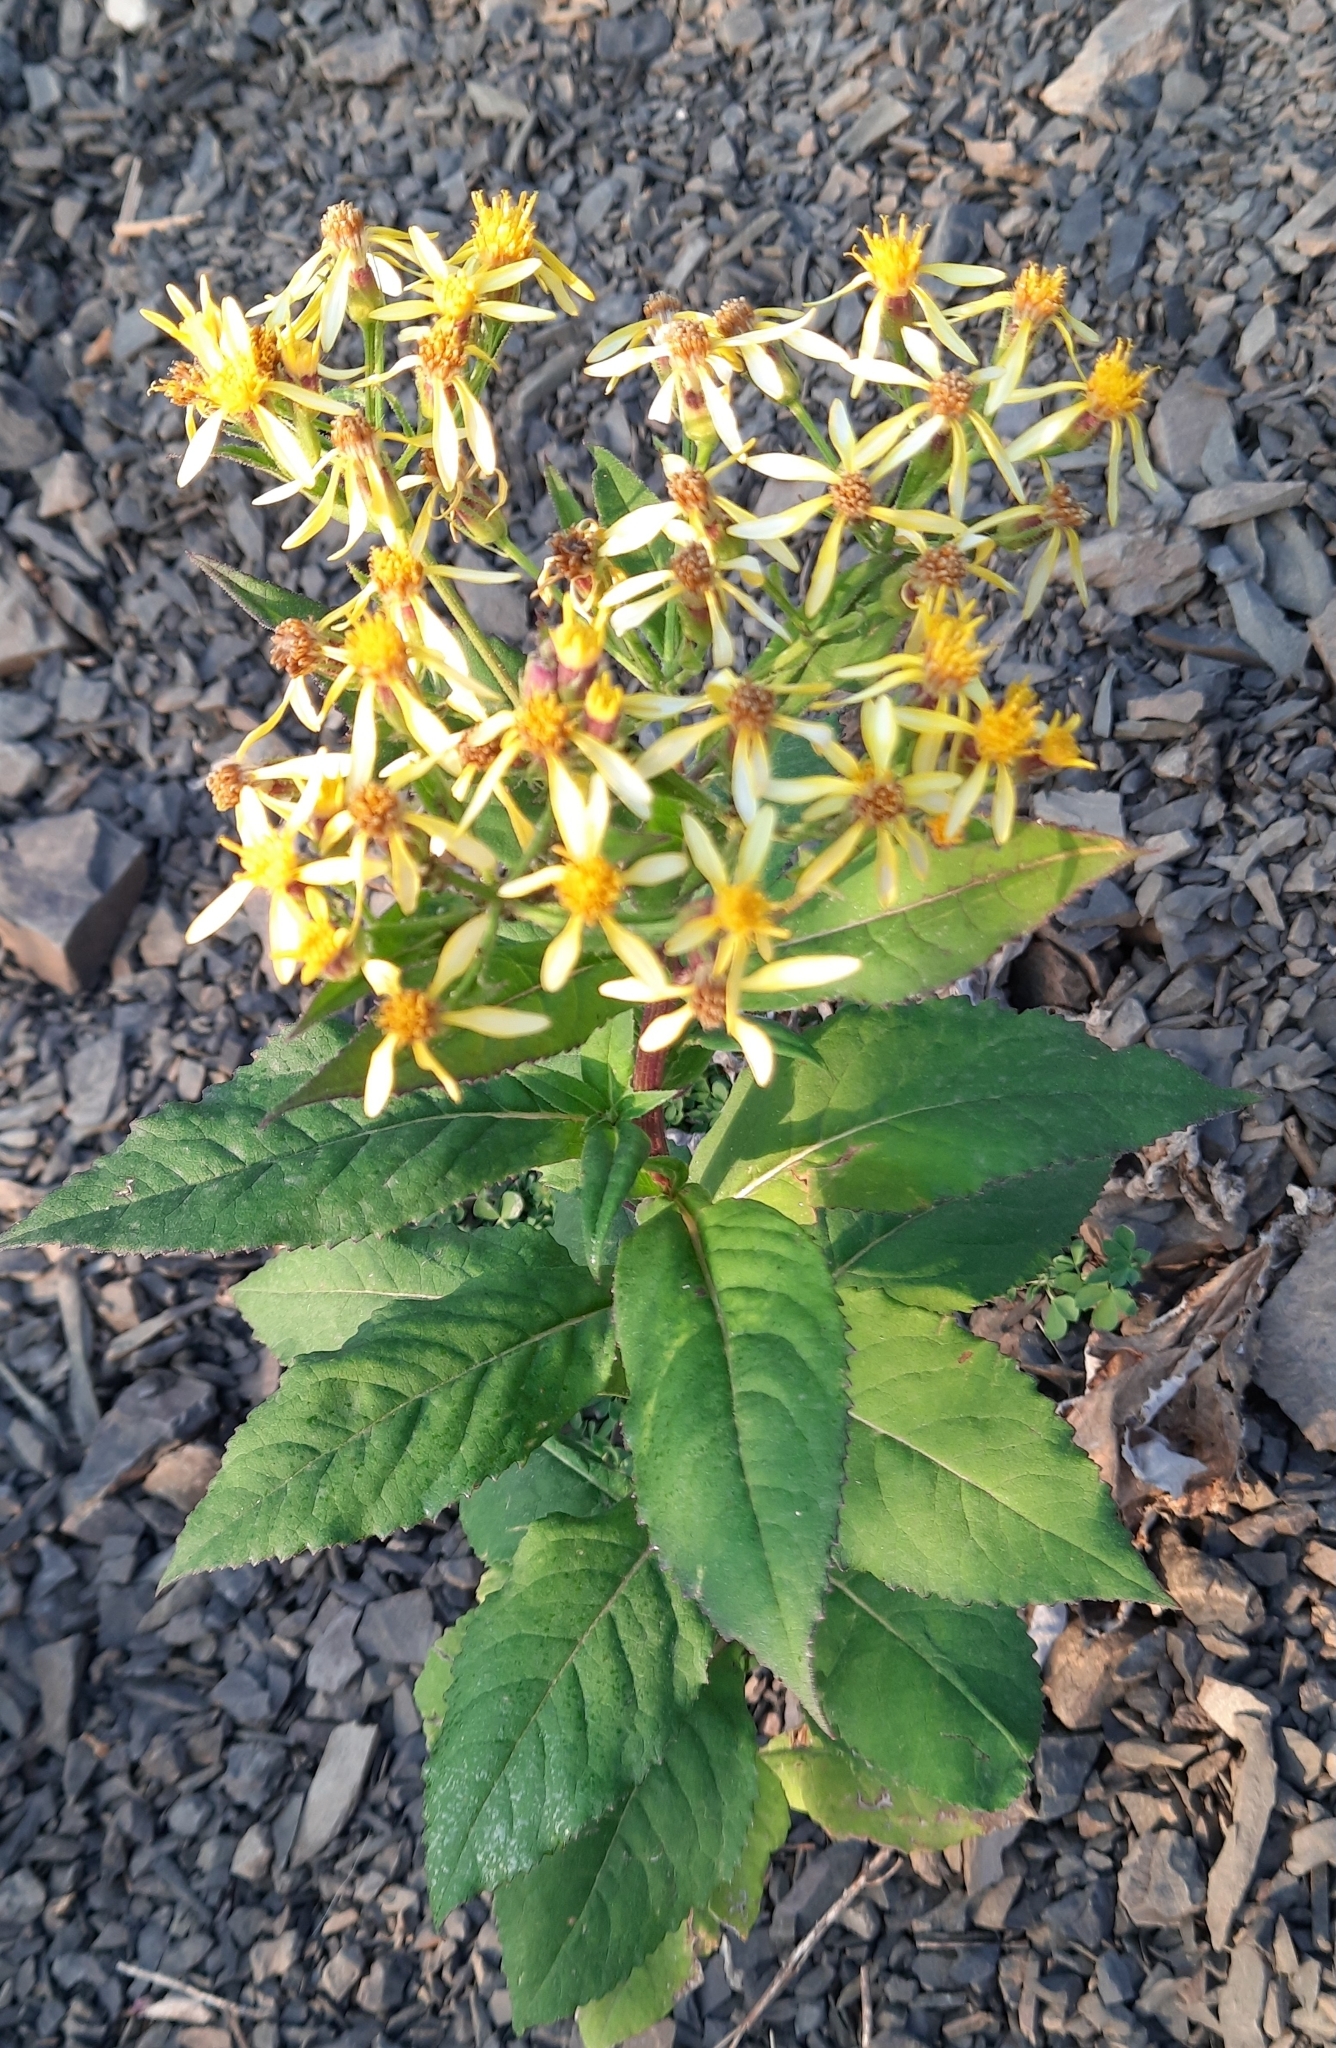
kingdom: Plantae
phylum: Tracheophyta
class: Magnoliopsida
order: Asterales
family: Asteraceae
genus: Senecio
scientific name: Senecio propinquus
